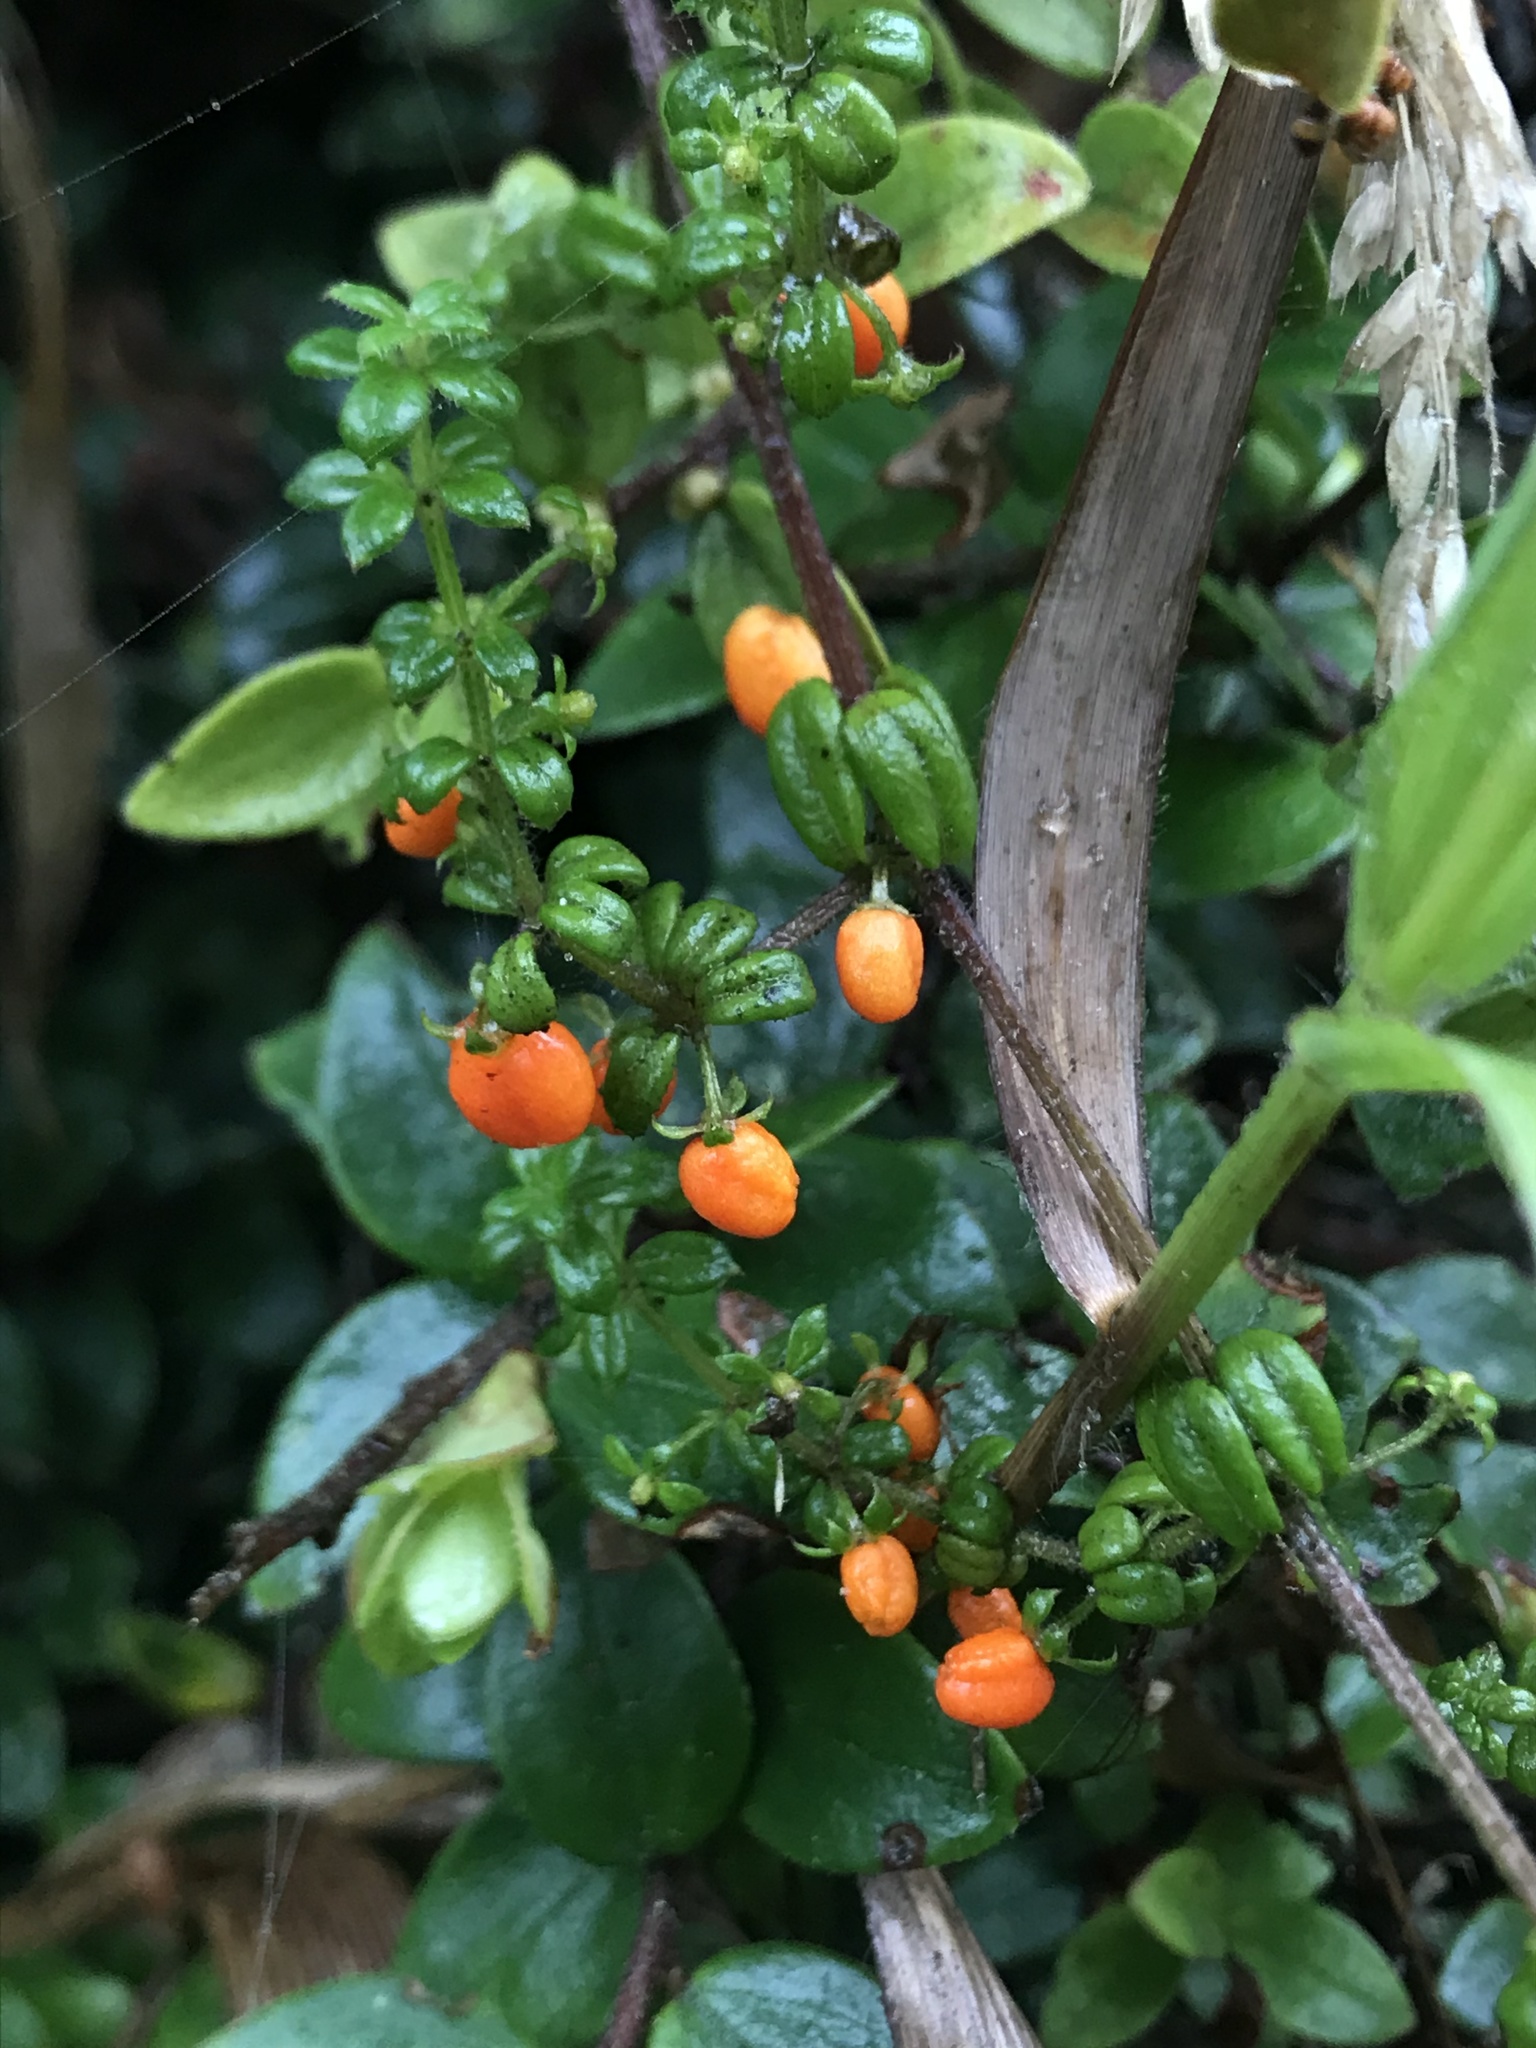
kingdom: Plantae
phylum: Tracheophyta
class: Magnoliopsida
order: Gentianales
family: Rubiaceae
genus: Galium
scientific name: Galium hypocarpium
